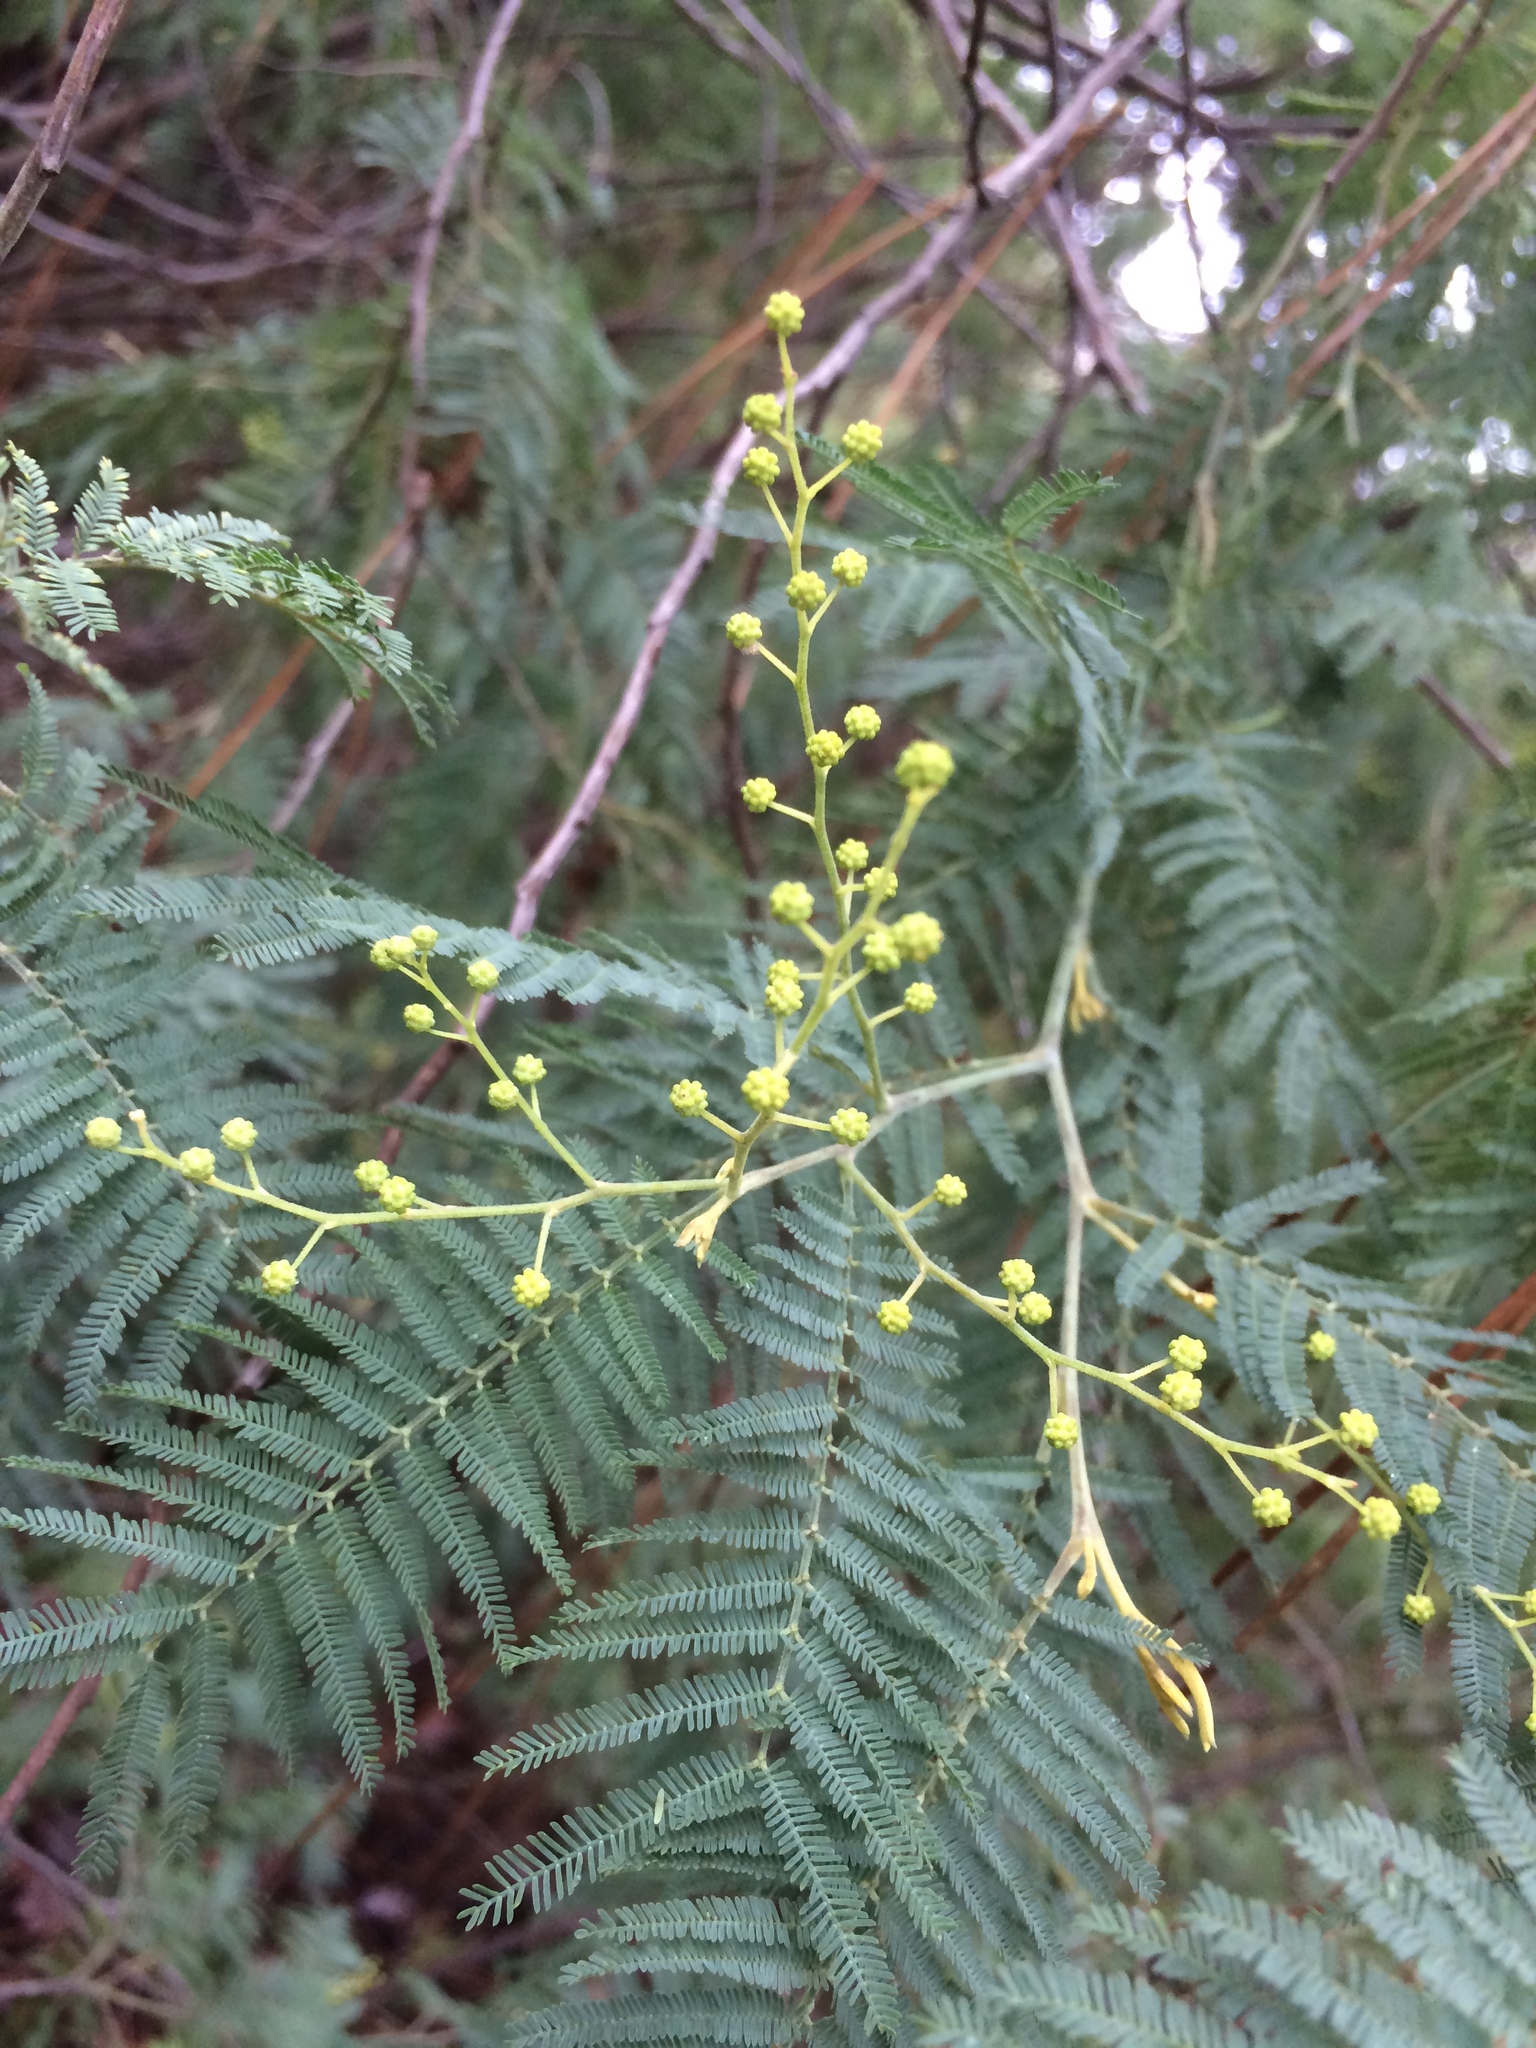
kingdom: Plantae
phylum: Tracheophyta
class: Magnoliopsida
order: Fabales
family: Fabaceae
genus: Acacia
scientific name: Acacia dealbata
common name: Silver wattle
